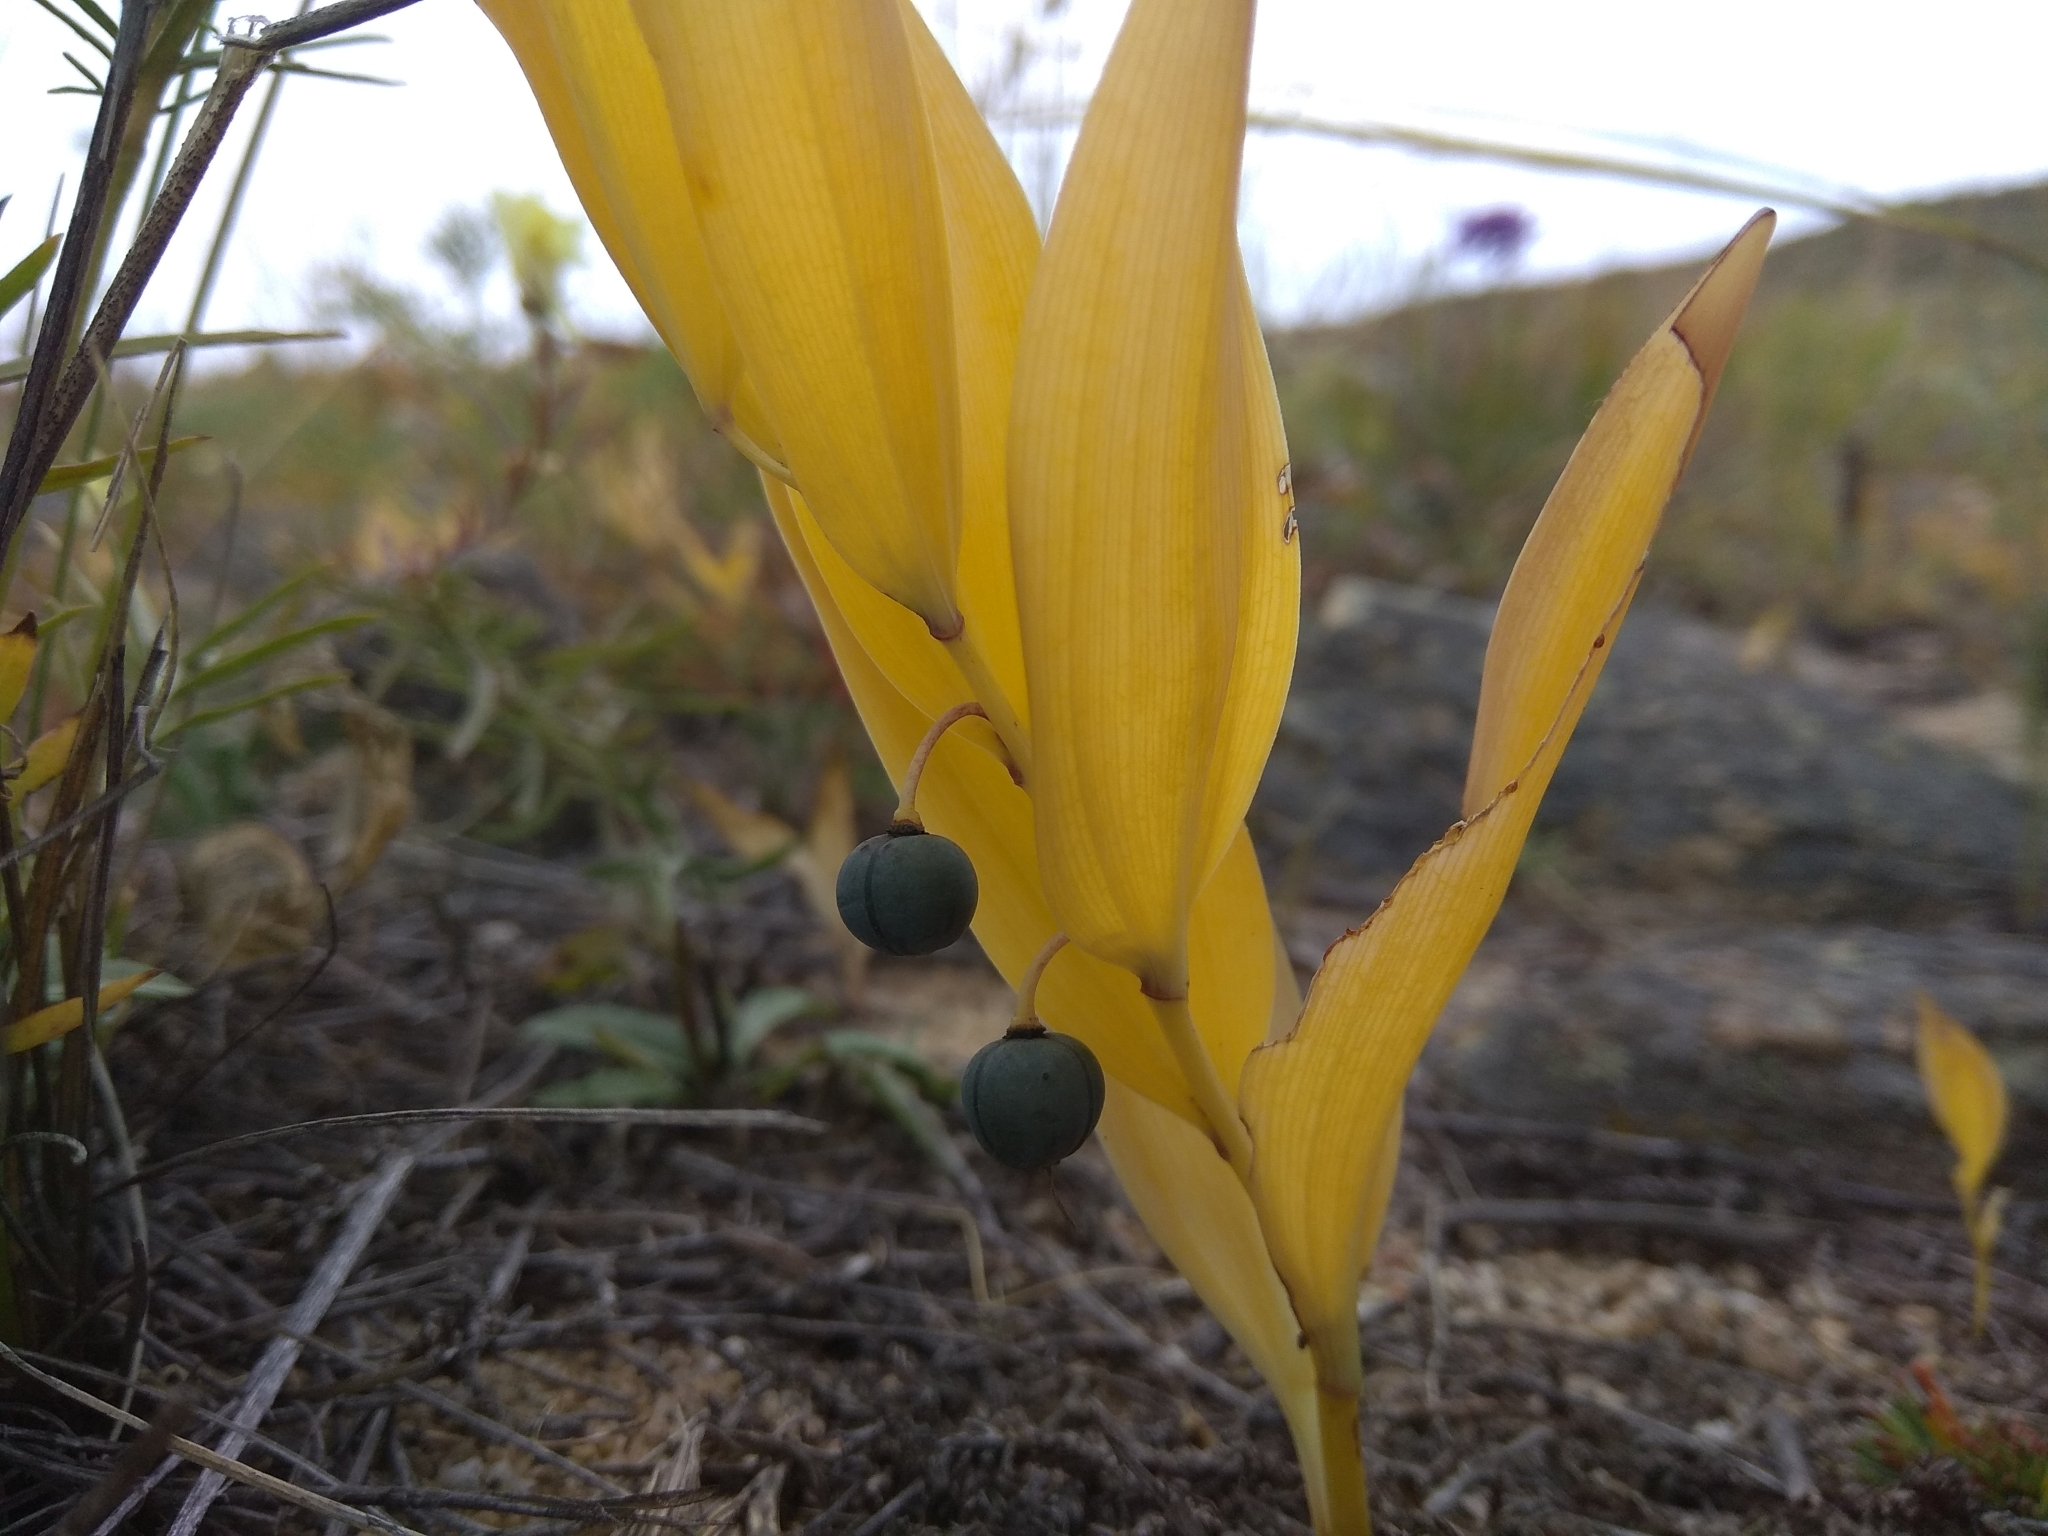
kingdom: Plantae
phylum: Tracheophyta
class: Liliopsida
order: Asparagales
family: Asparagaceae
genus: Polygonatum
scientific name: Polygonatum odoratum
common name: Angular solomon's-seal
